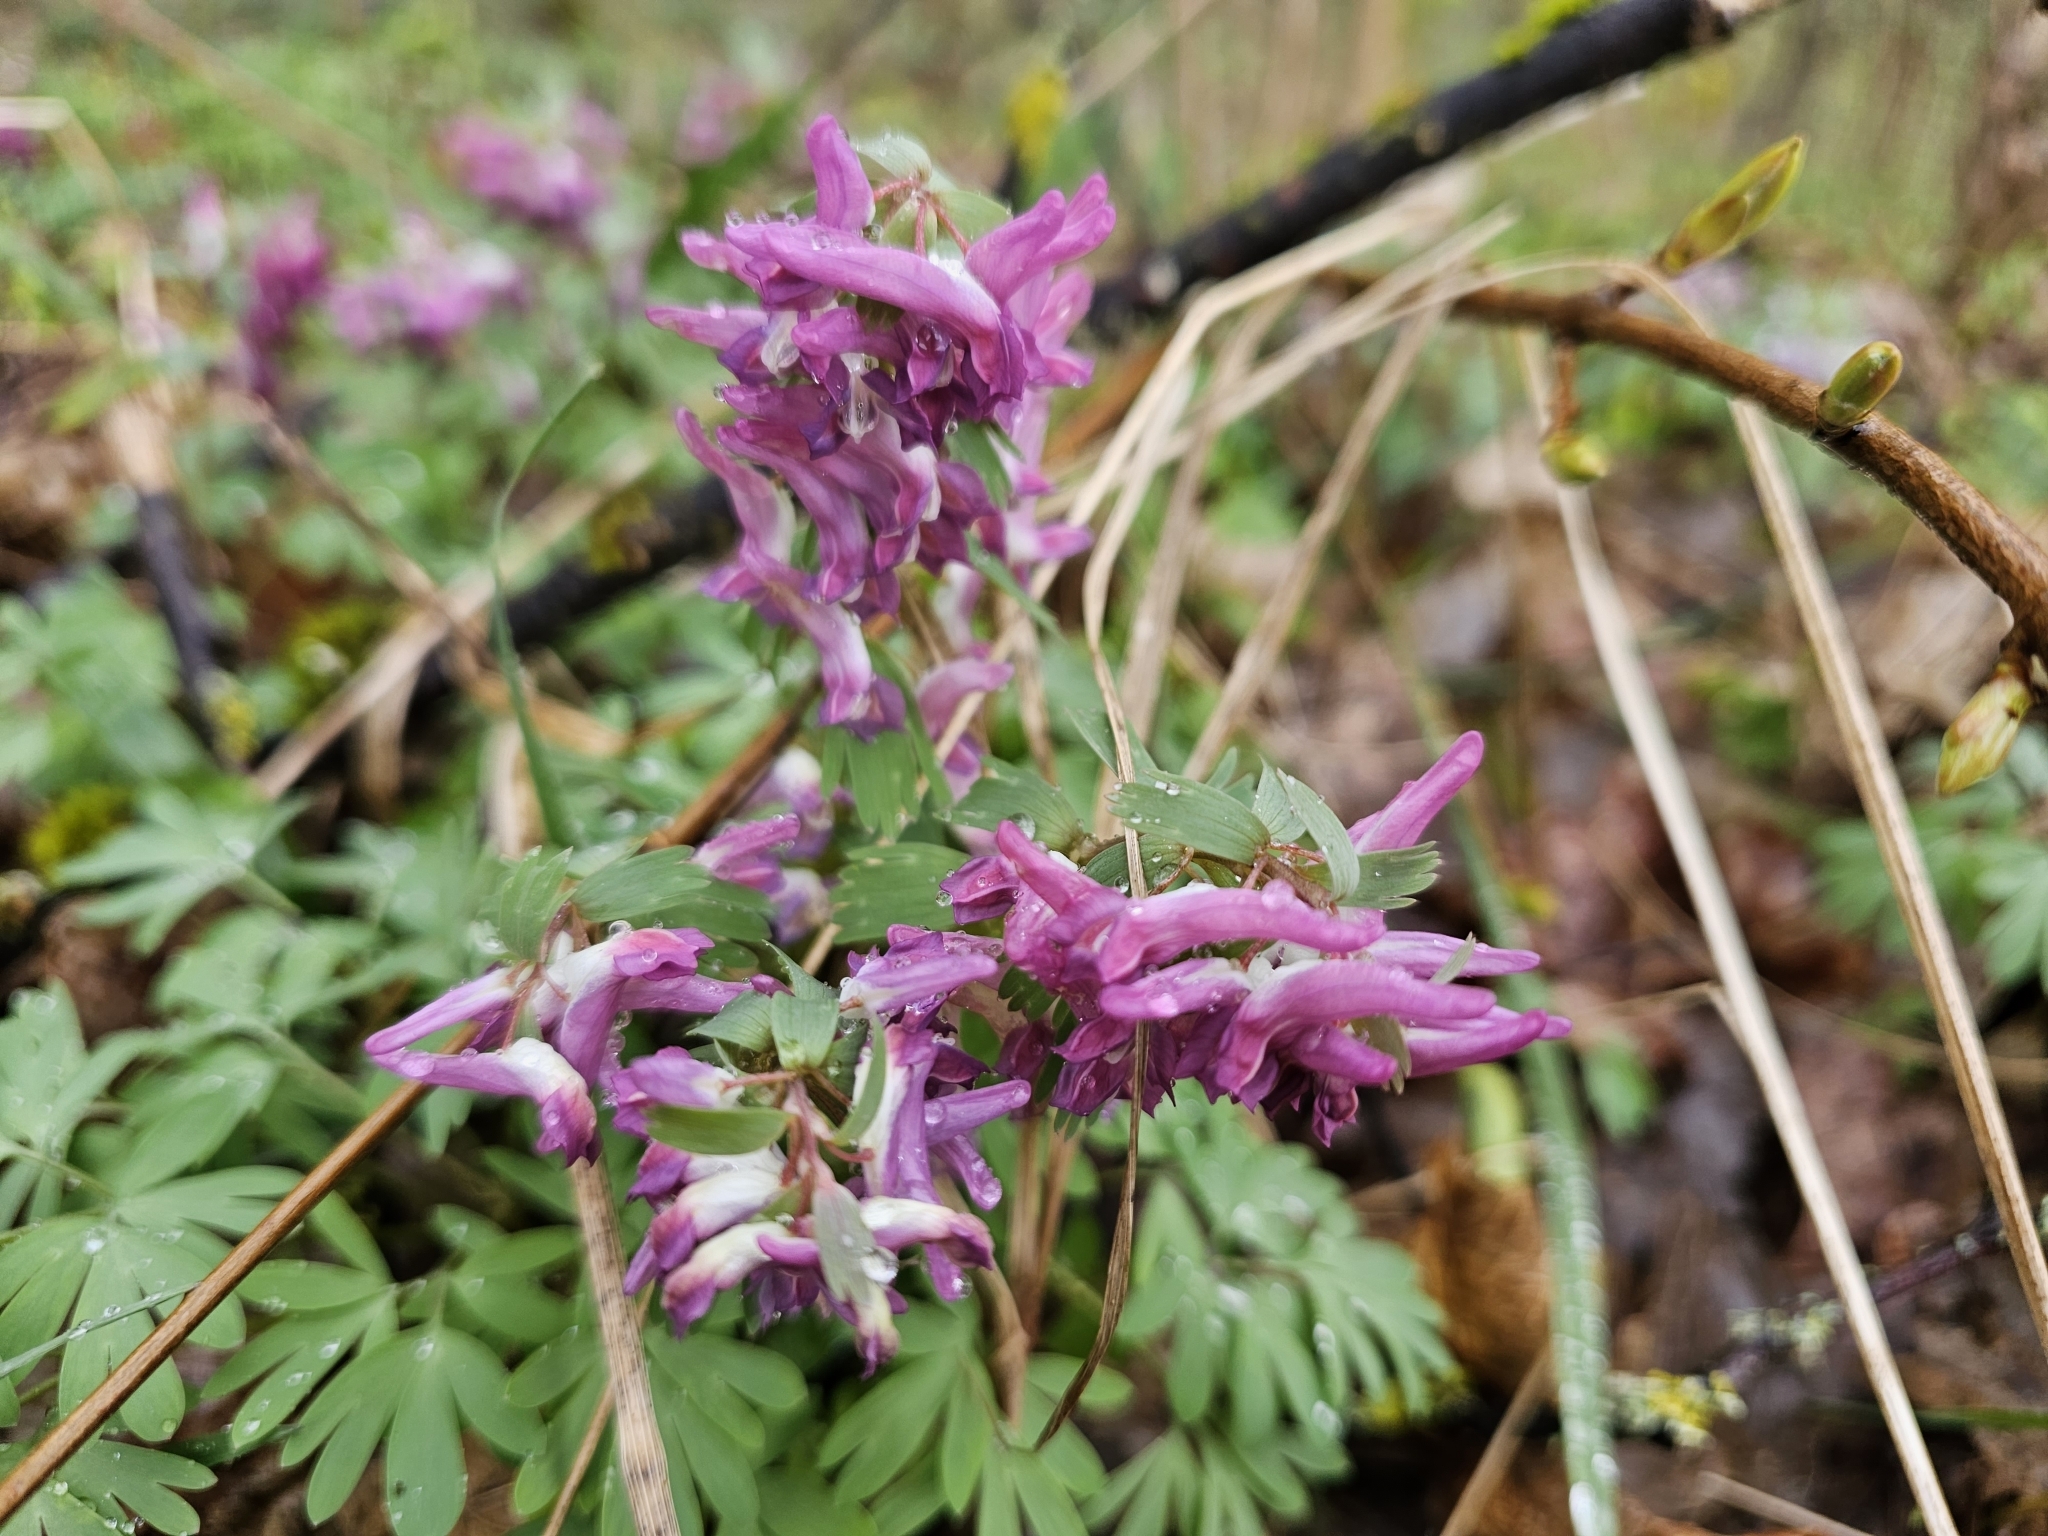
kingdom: Plantae
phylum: Tracheophyta
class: Magnoliopsida
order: Ranunculales
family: Papaveraceae
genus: Corydalis
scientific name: Corydalis solida
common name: Bird-in-a-bush
